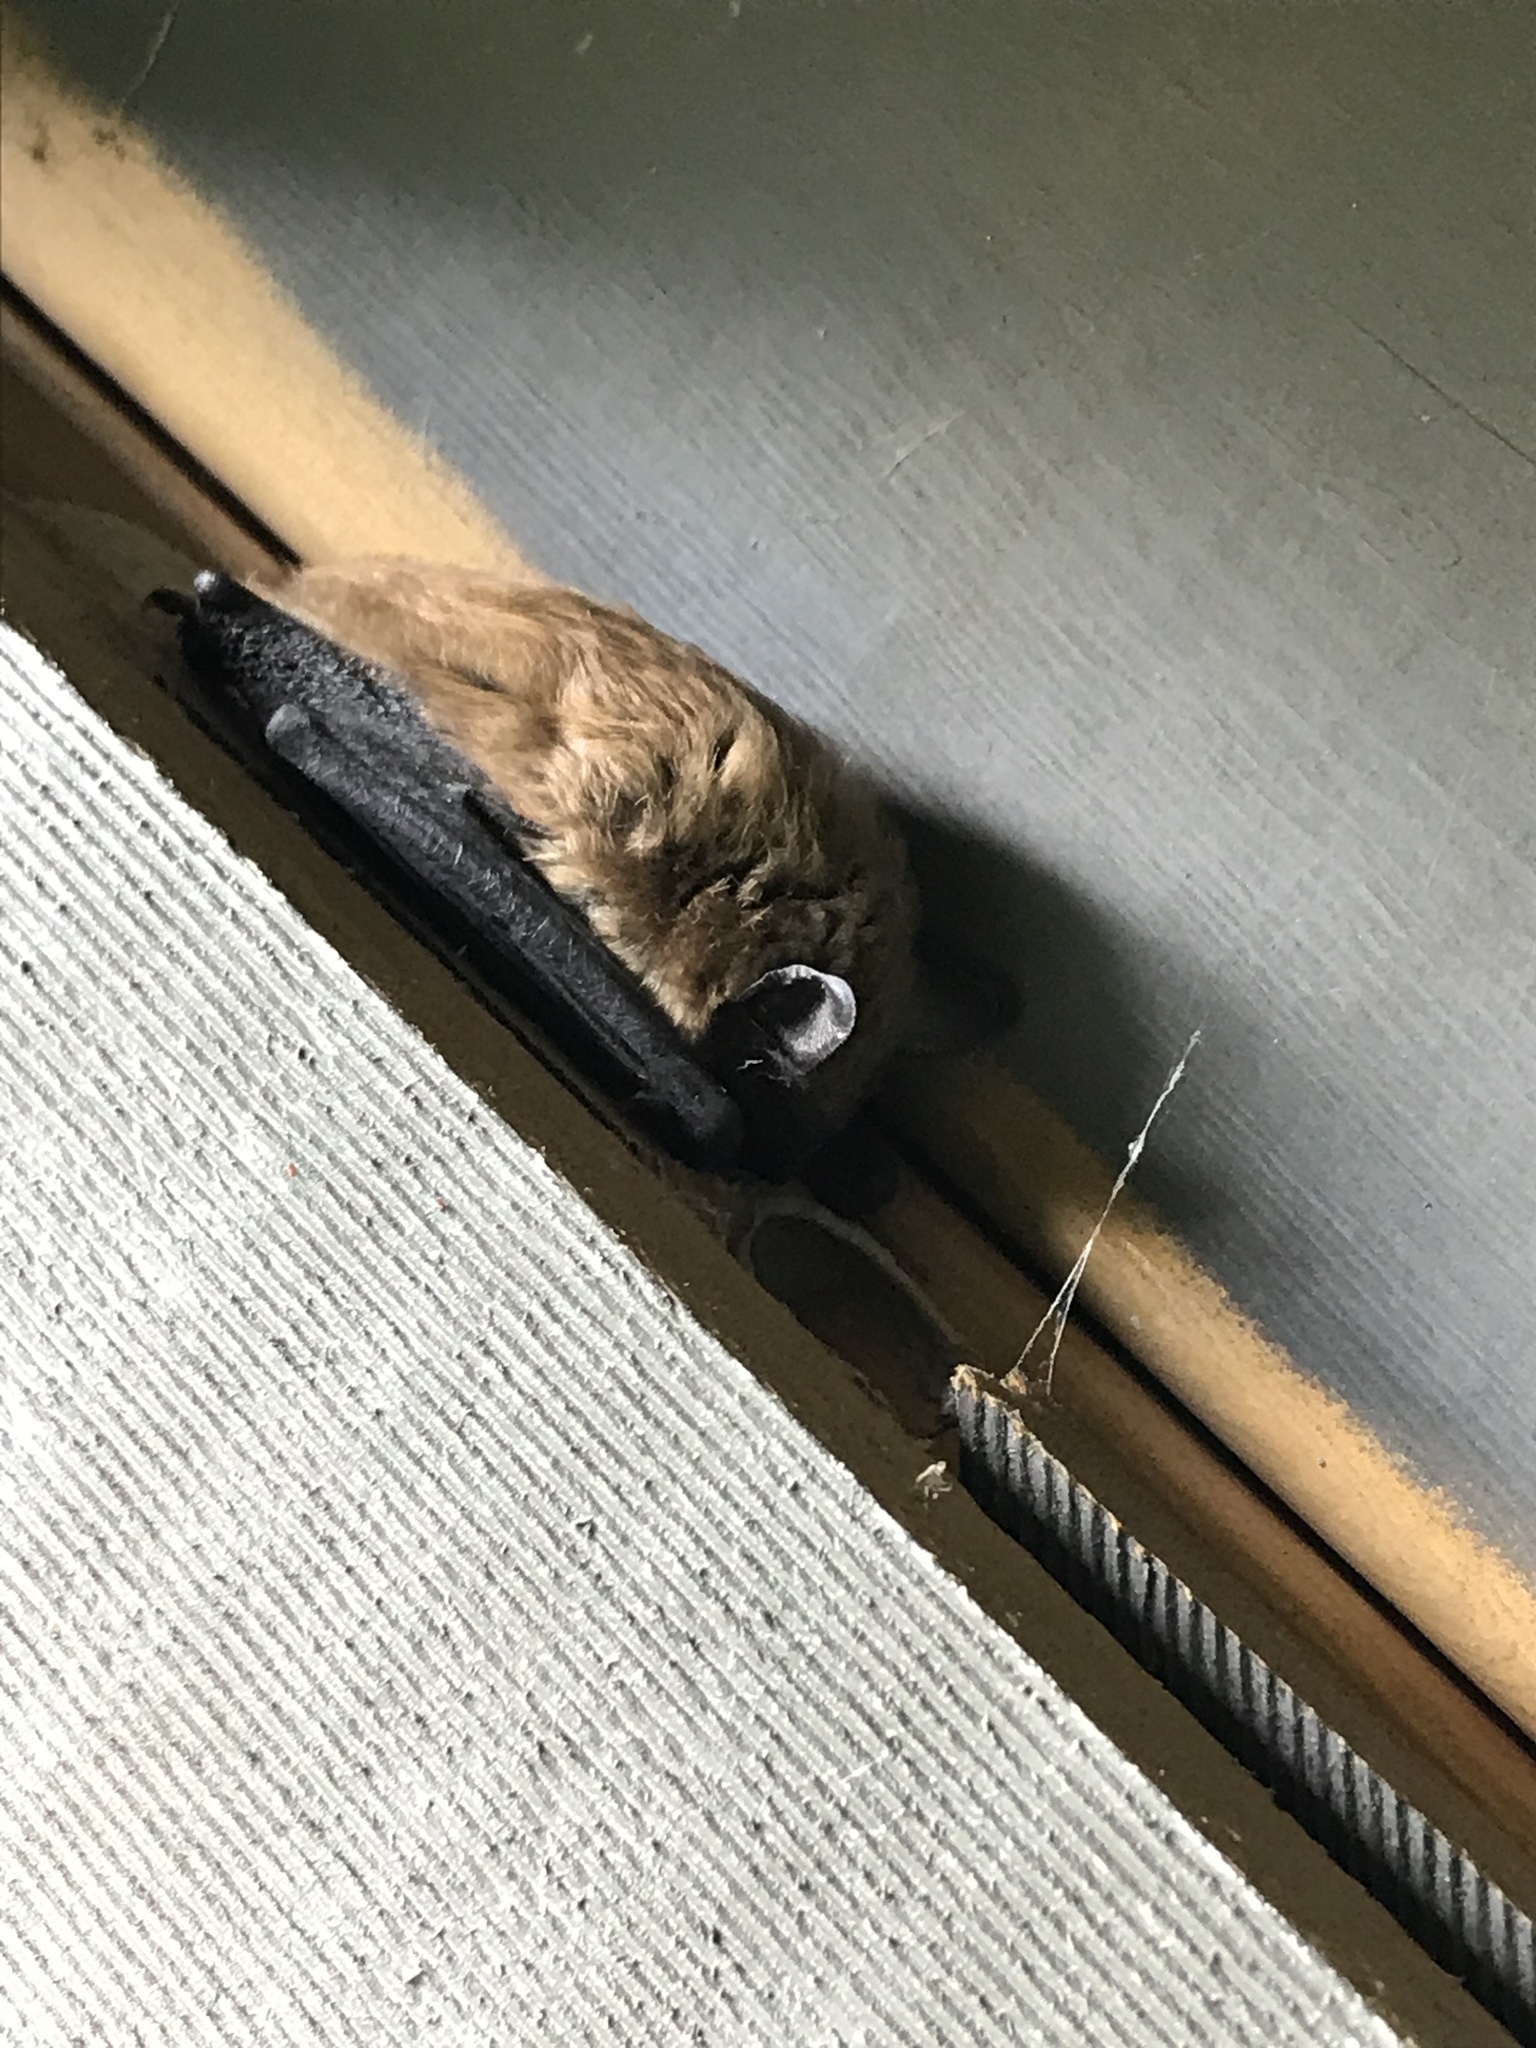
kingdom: Animalia
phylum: Chordata
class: Mammalia
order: Chiroptera
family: Vespertilionidae
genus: Eptesicus
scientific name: Eptesicus fuscus
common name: Big brown bat
